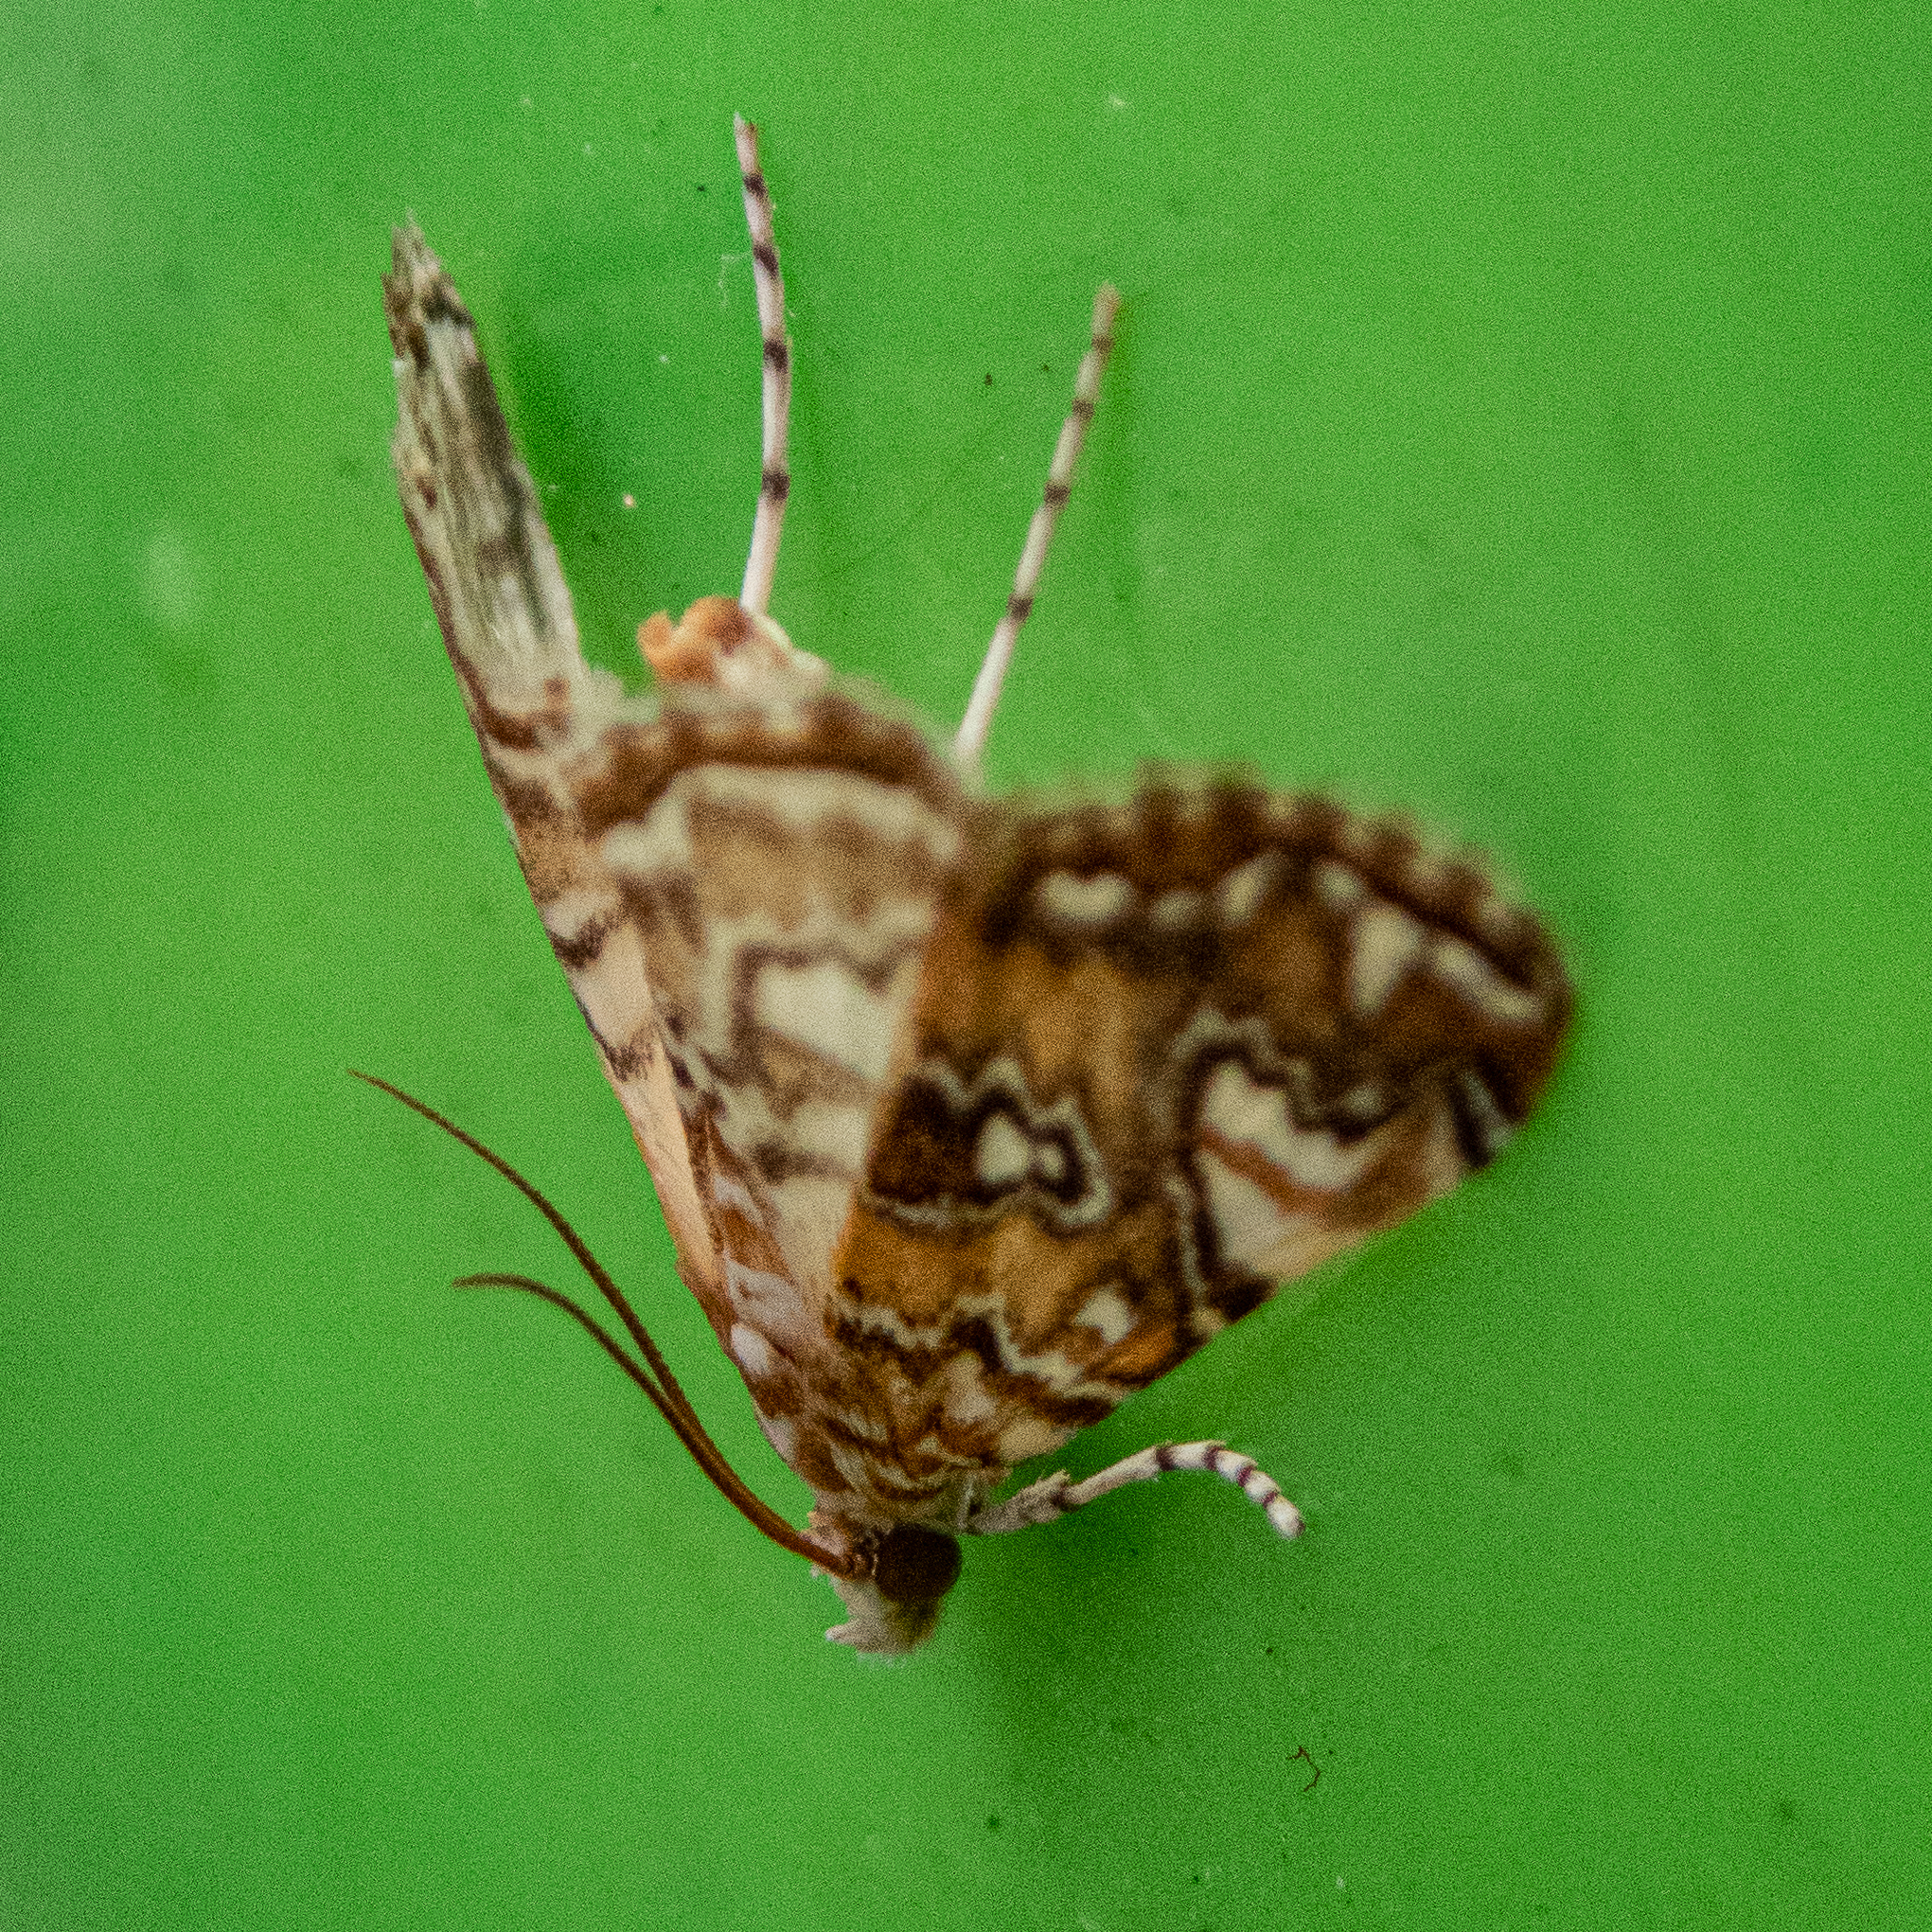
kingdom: Animalia
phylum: Arthropoda
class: Insecta
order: Lepidoptera
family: Crambidae
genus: Elophila
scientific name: Elophila gyralis
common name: Waterlily borer moth
